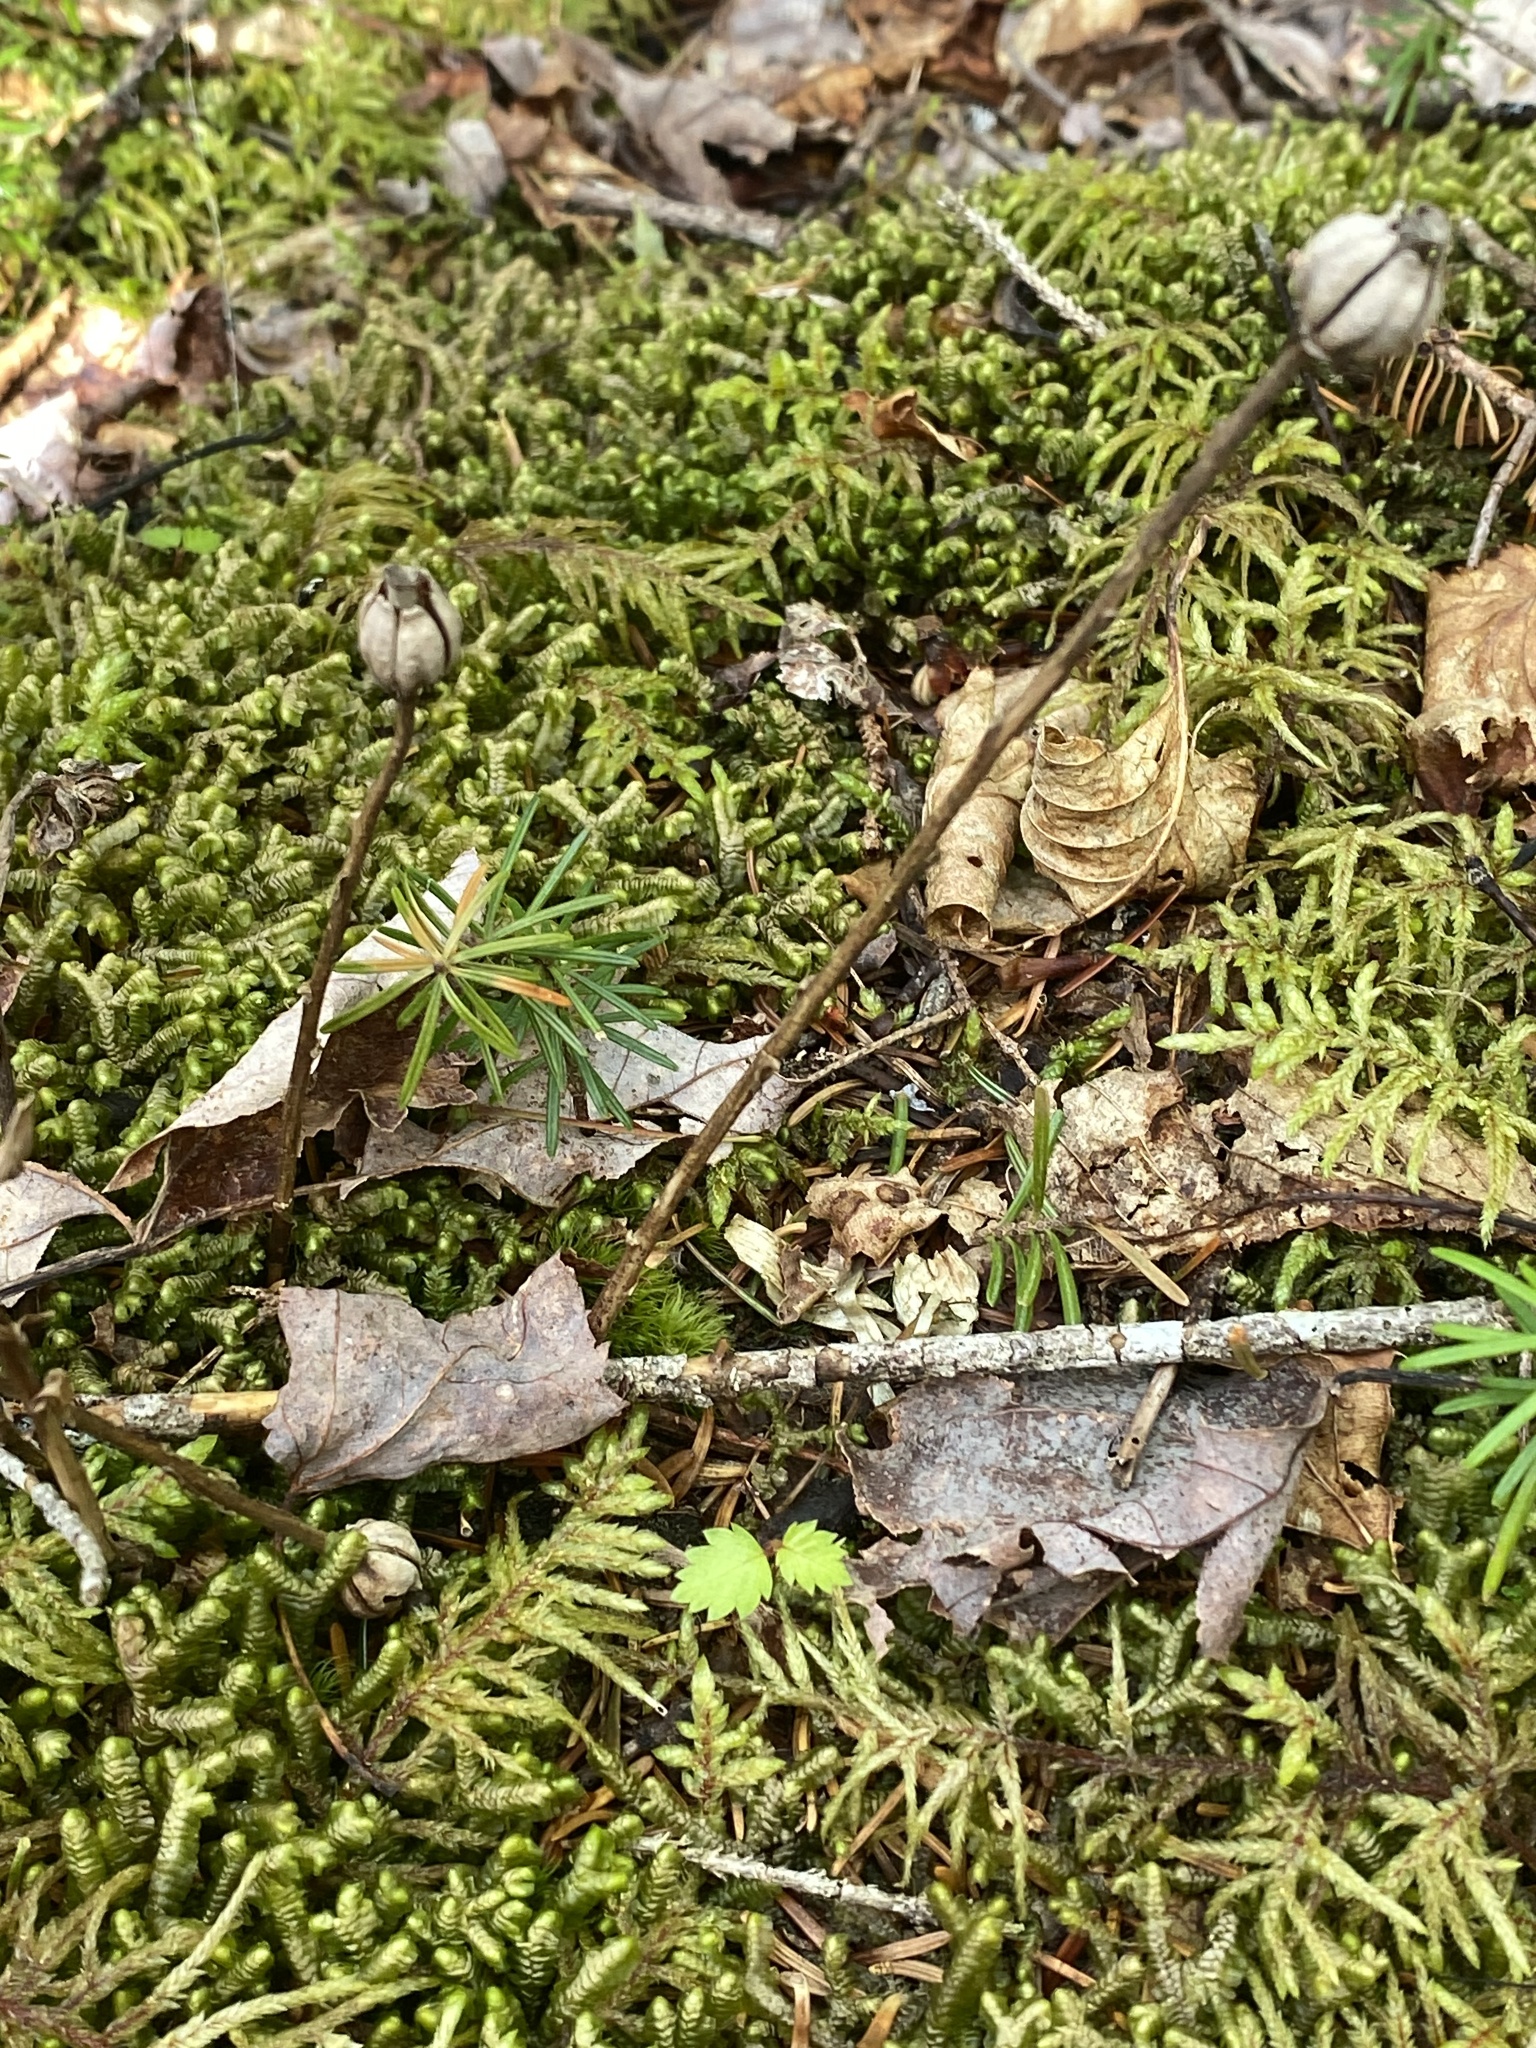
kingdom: Plantae
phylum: Tracheophyta
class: Magnoliopsida
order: Ericales
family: Ericaceae
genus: Monotropa
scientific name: Monotropa uniflora
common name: Convulsion root
